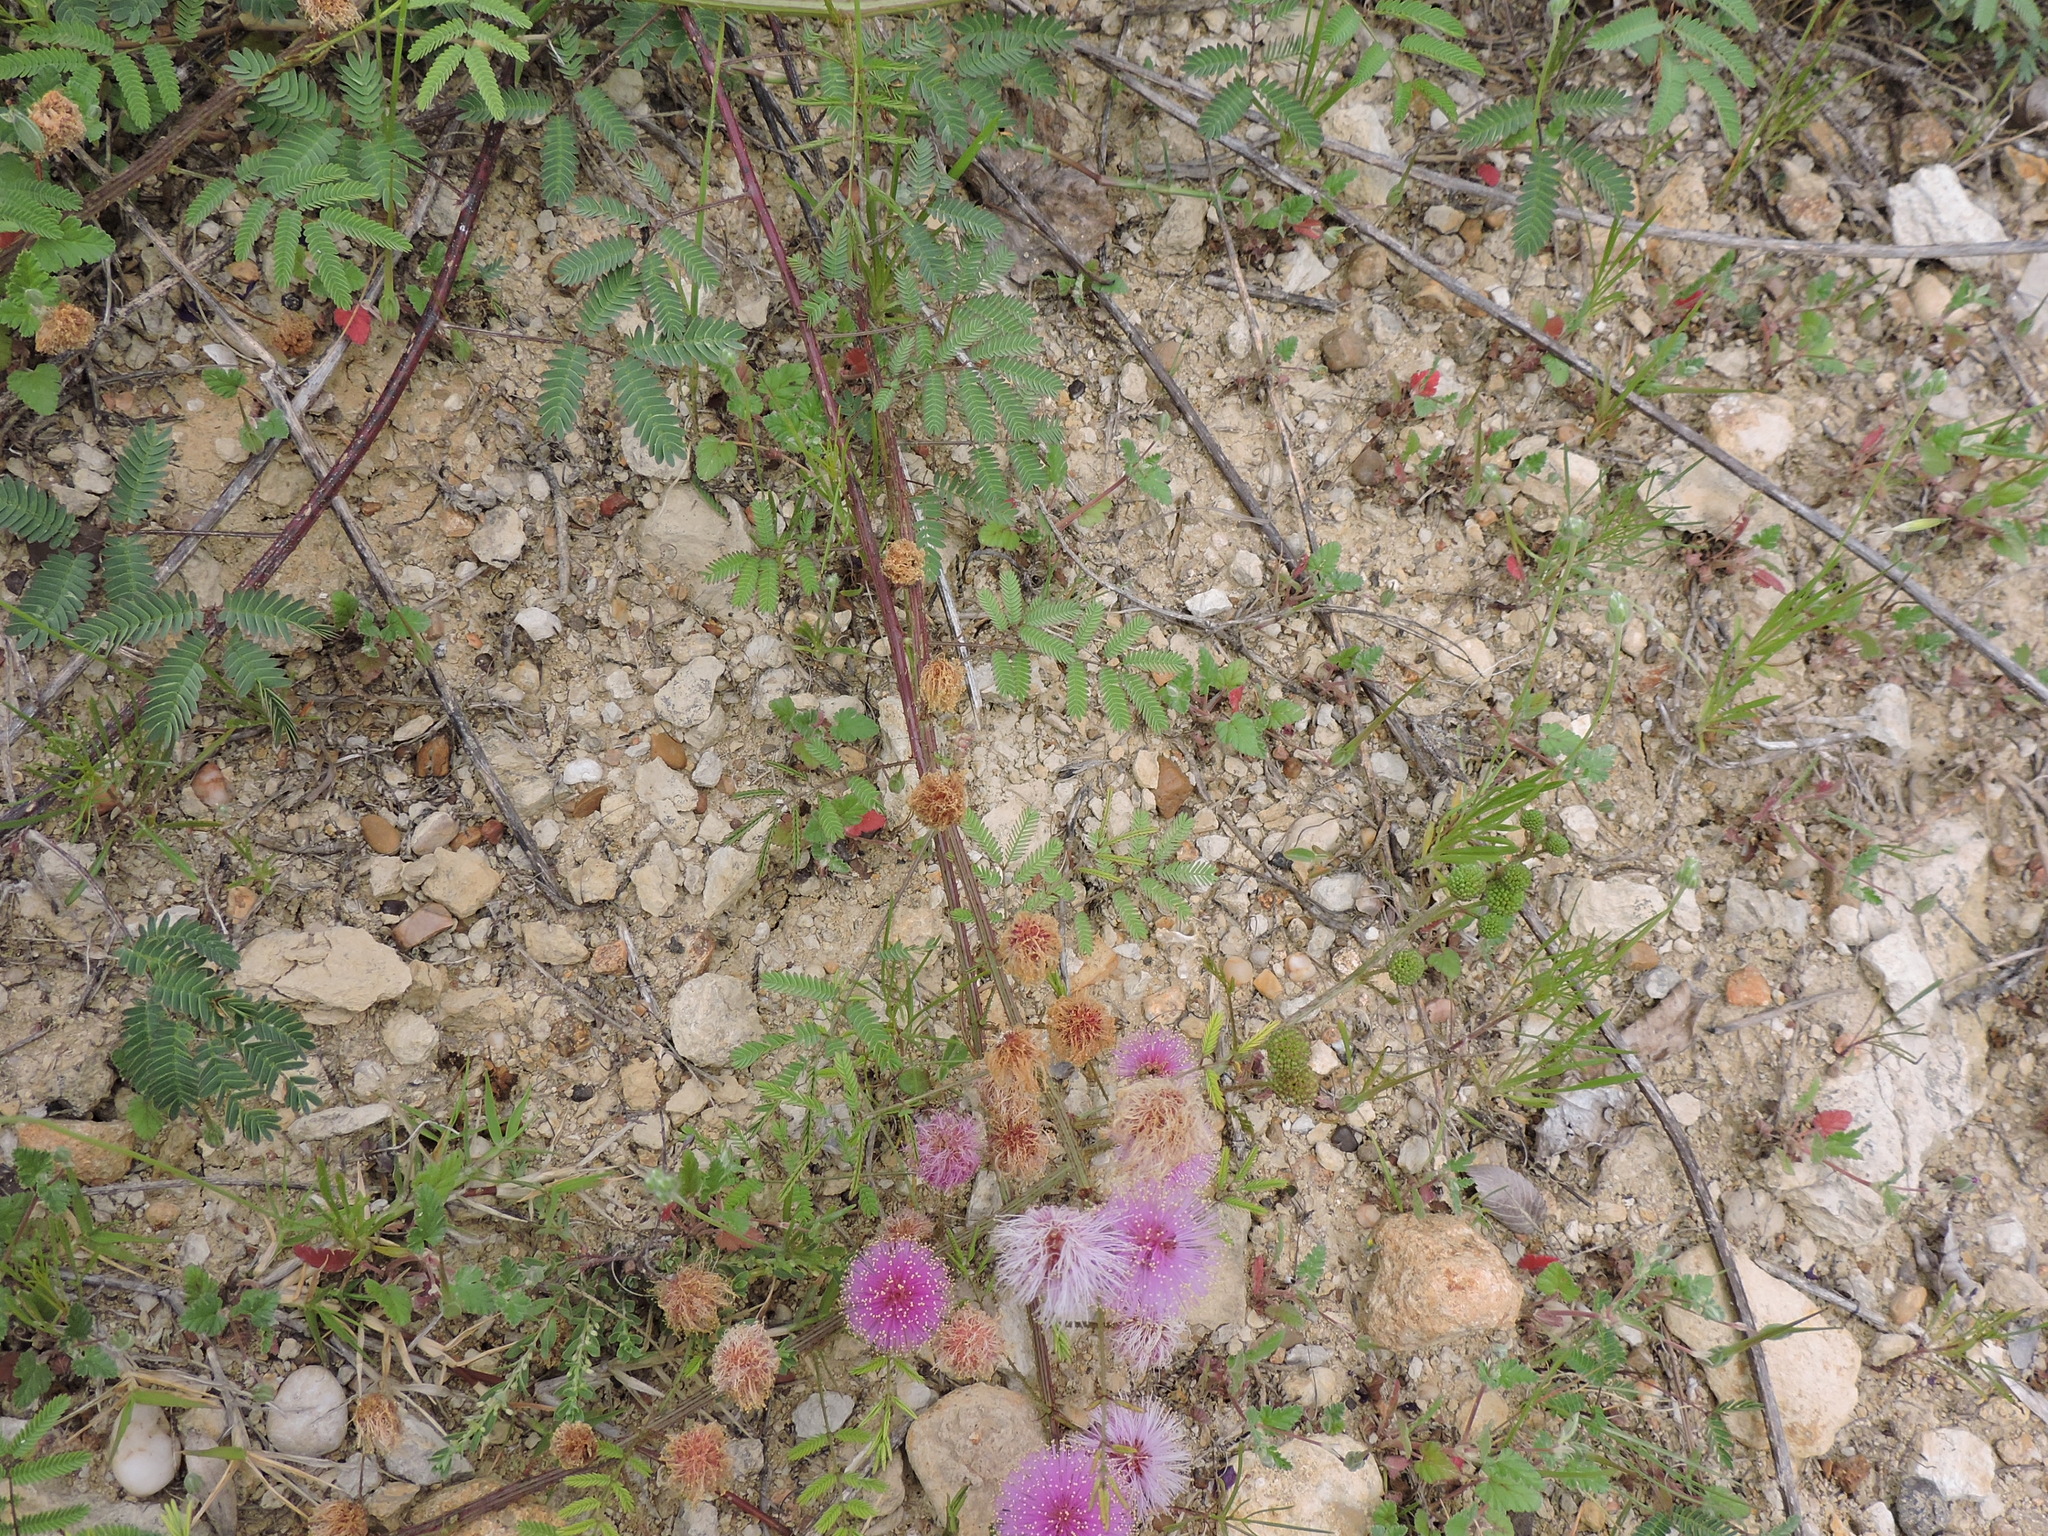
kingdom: Plantae
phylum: Tracheophyta
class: Magnoliopsida
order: Fabales
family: Fabaceae
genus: Mimosa
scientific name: Mimosa quadrivalvis
